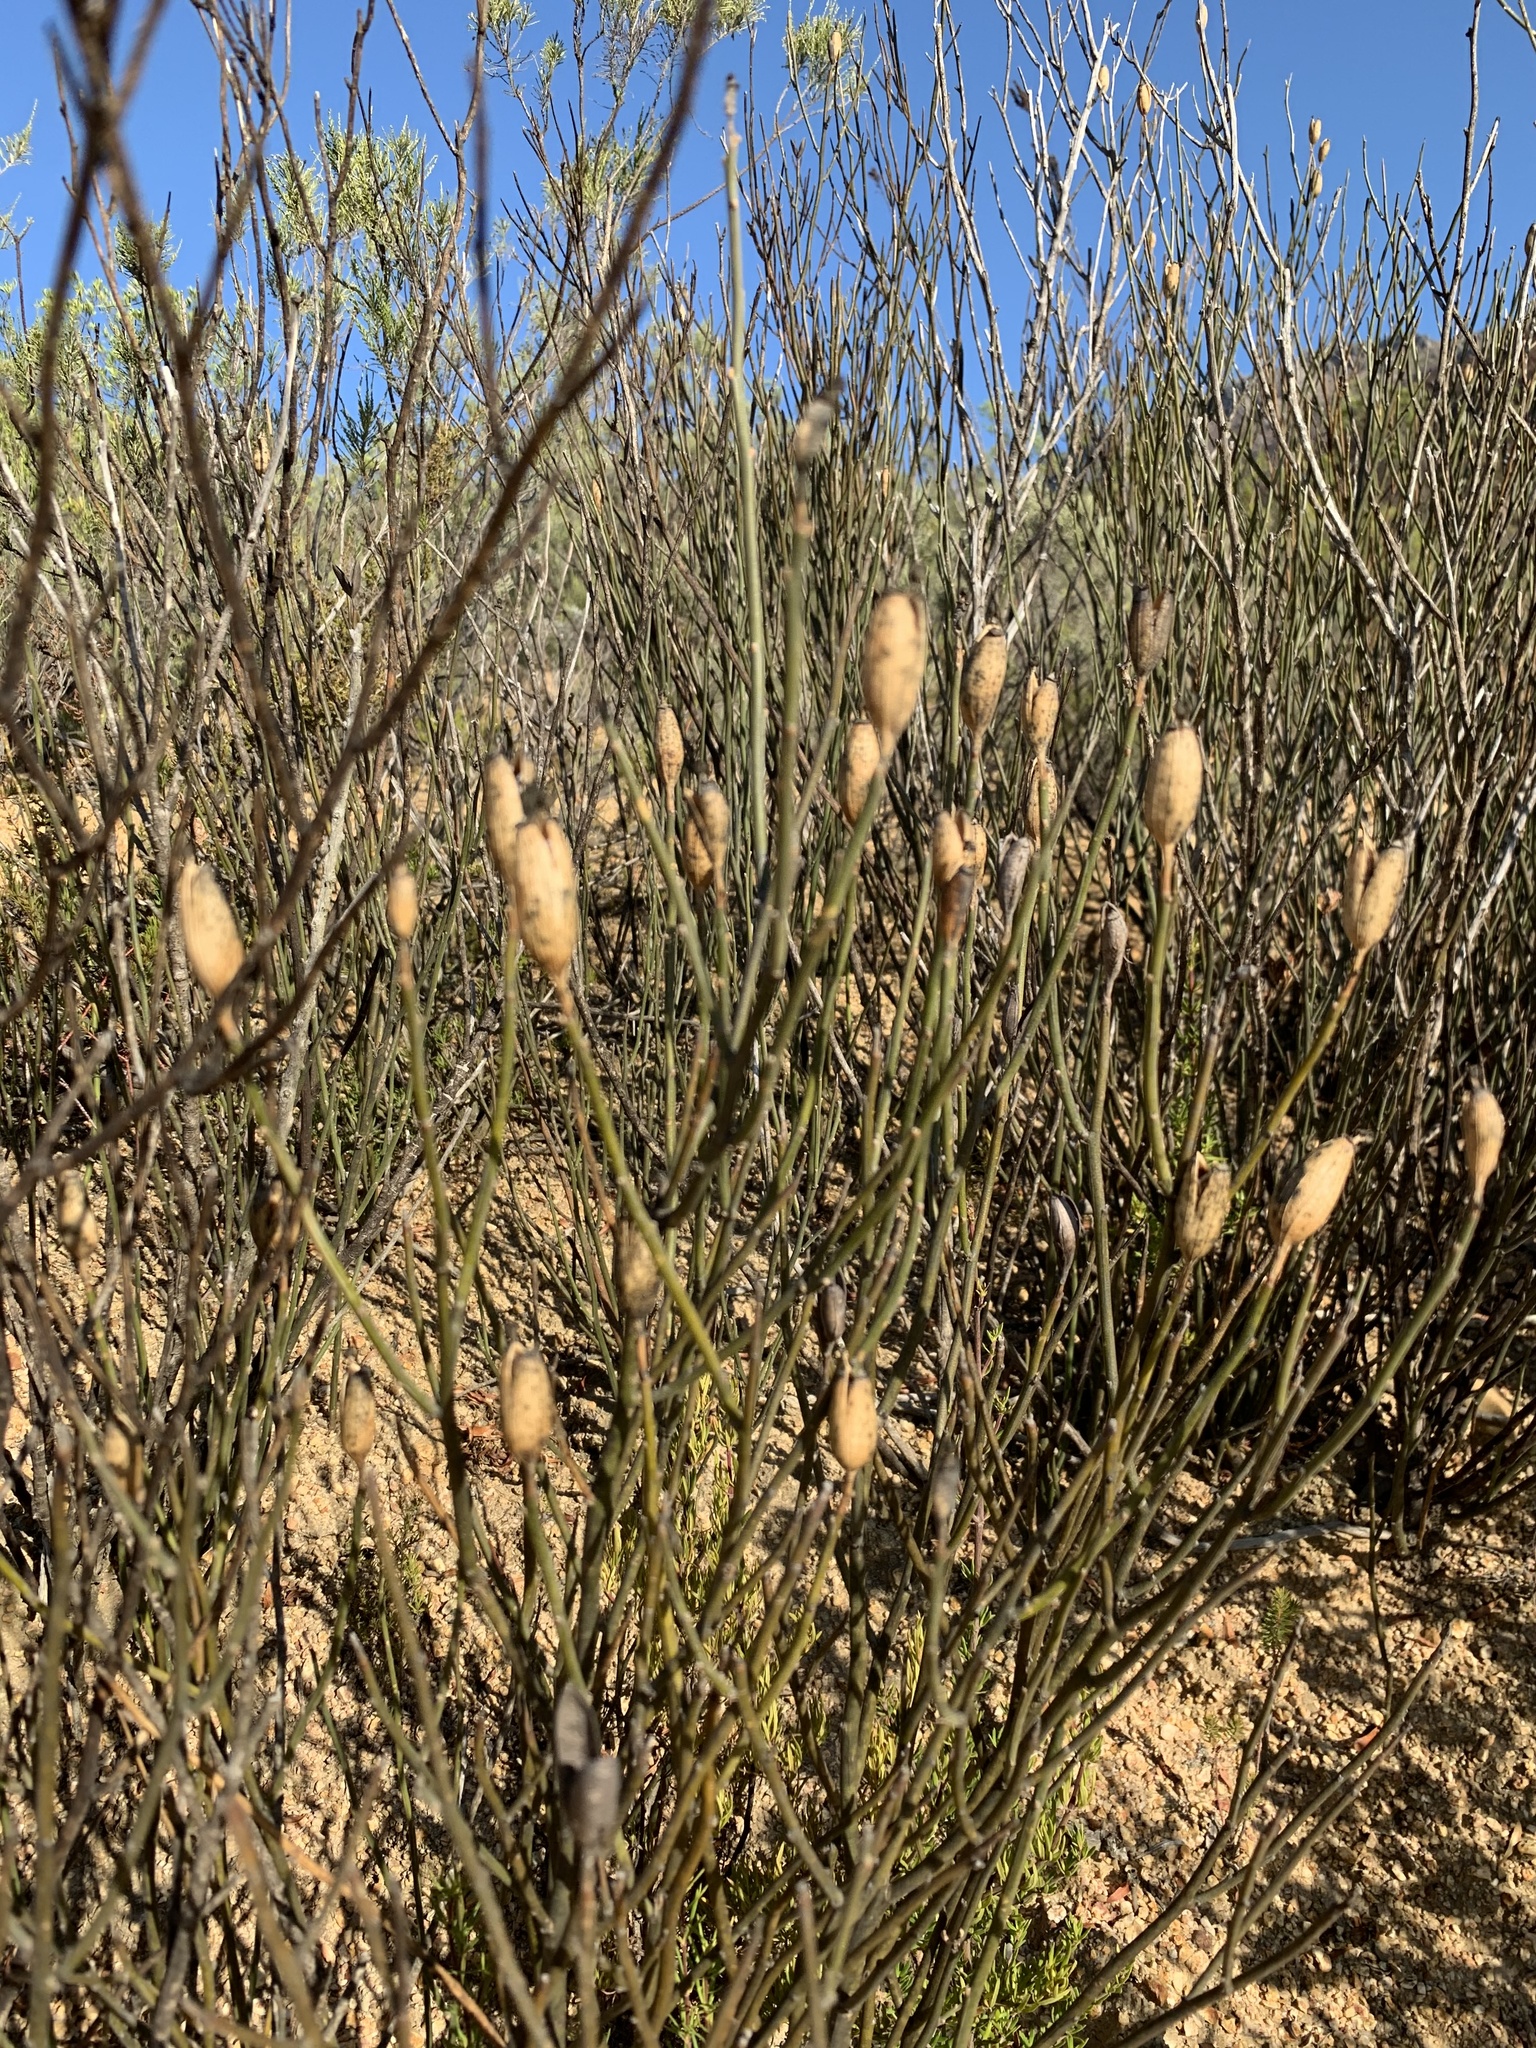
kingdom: Plantae
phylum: Tracheophyta
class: Magnoliopsida
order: Solanales
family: Montiniaceae
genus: Montinia
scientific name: Montinia caryophyllacea
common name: Wild clove-bush
